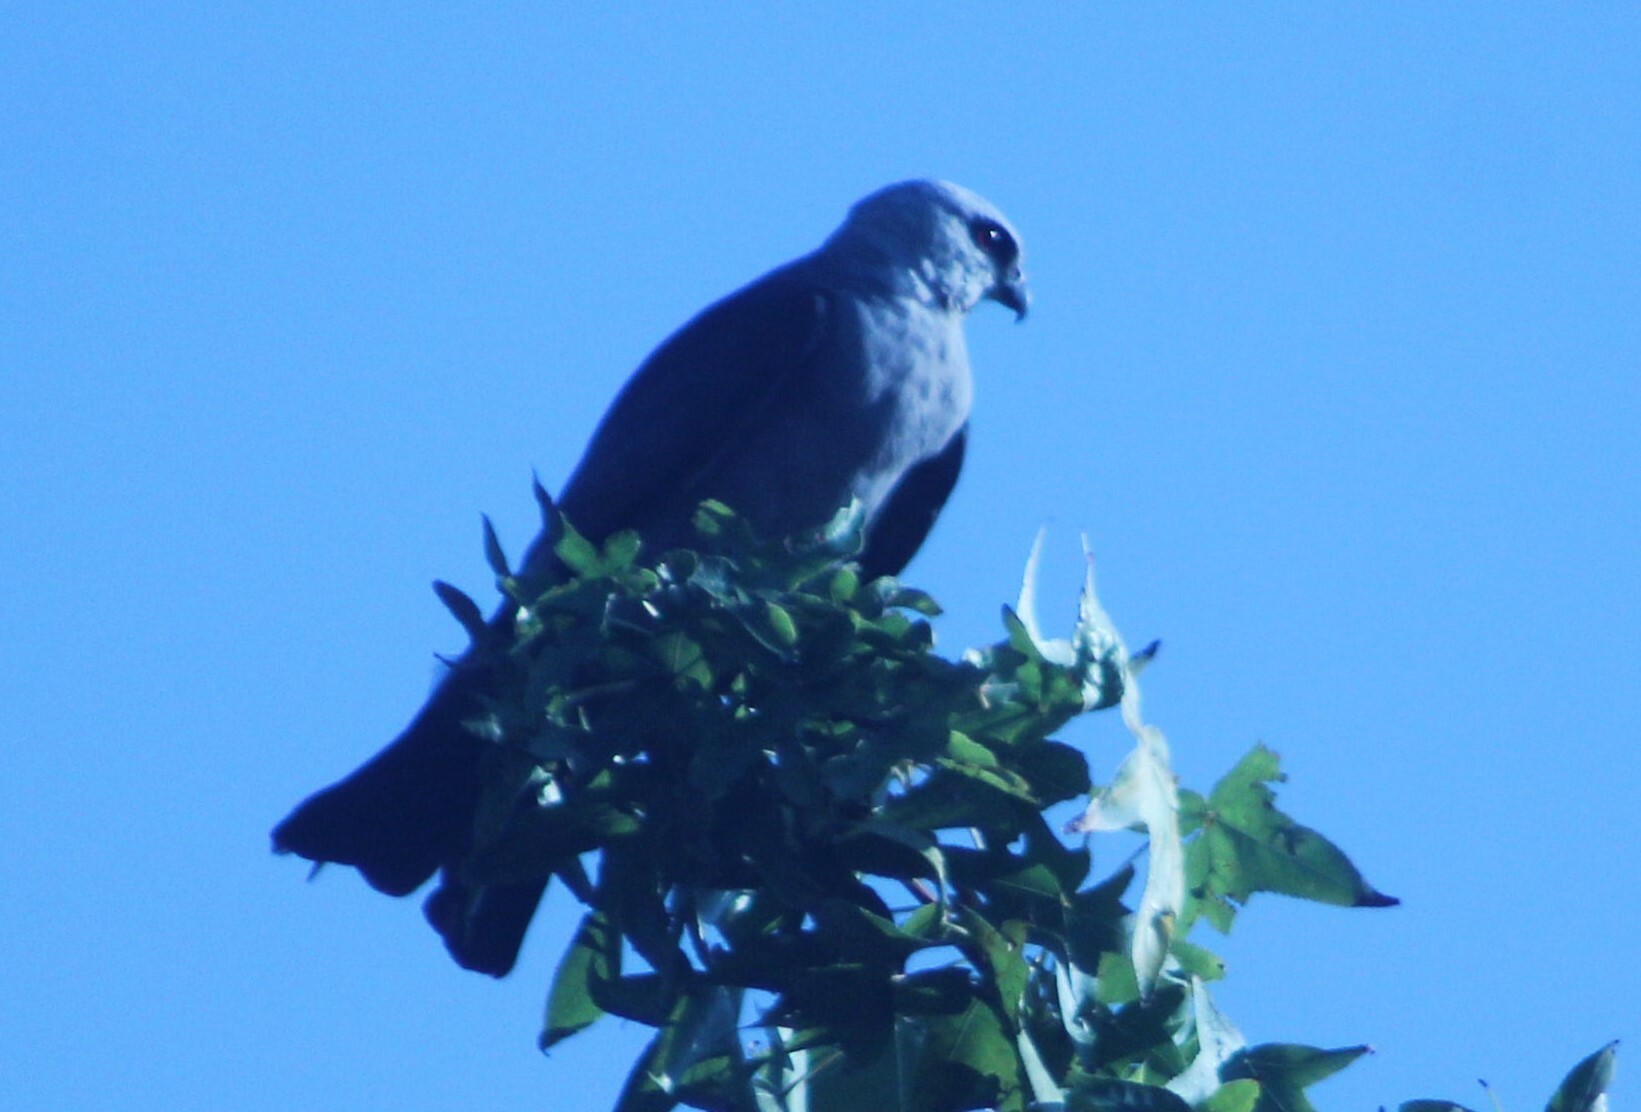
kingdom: Animalia
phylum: Chordata
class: Aves
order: Accipitriformes
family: Accipitridae
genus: Ictinia
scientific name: Ictinia mississippiensis
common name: Mississippi kite
